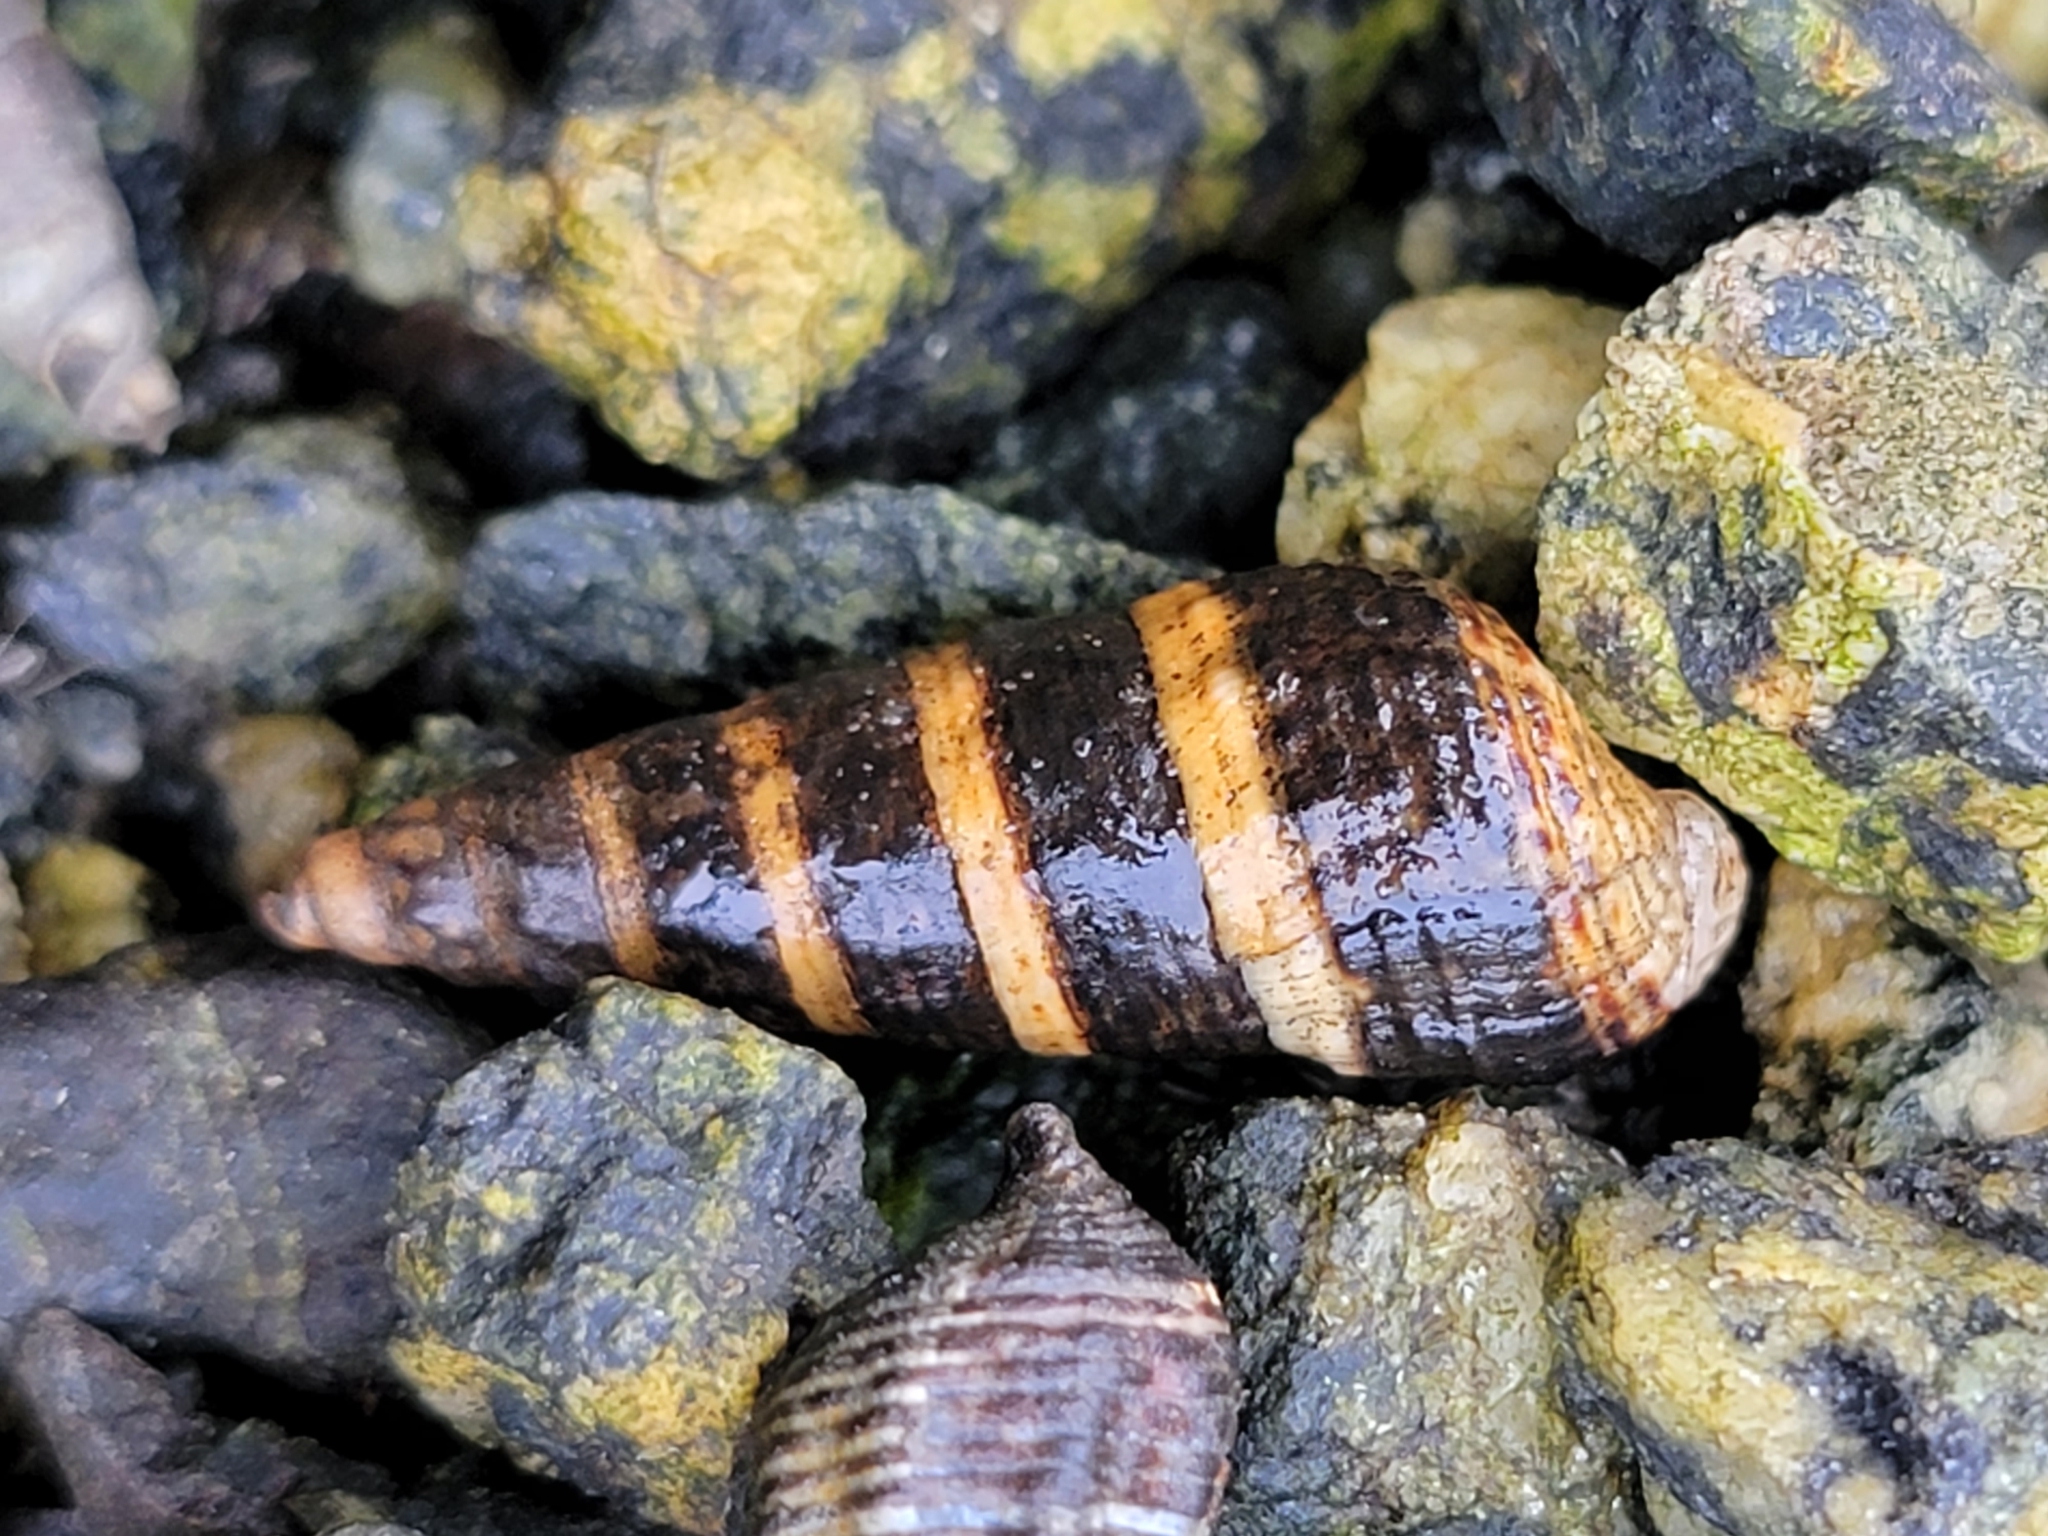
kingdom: Animalia
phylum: Mollusca
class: Gastropoda
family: Batillariidae
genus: Batillaria
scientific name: Batillaria attramentaria
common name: Japanese false cerith
